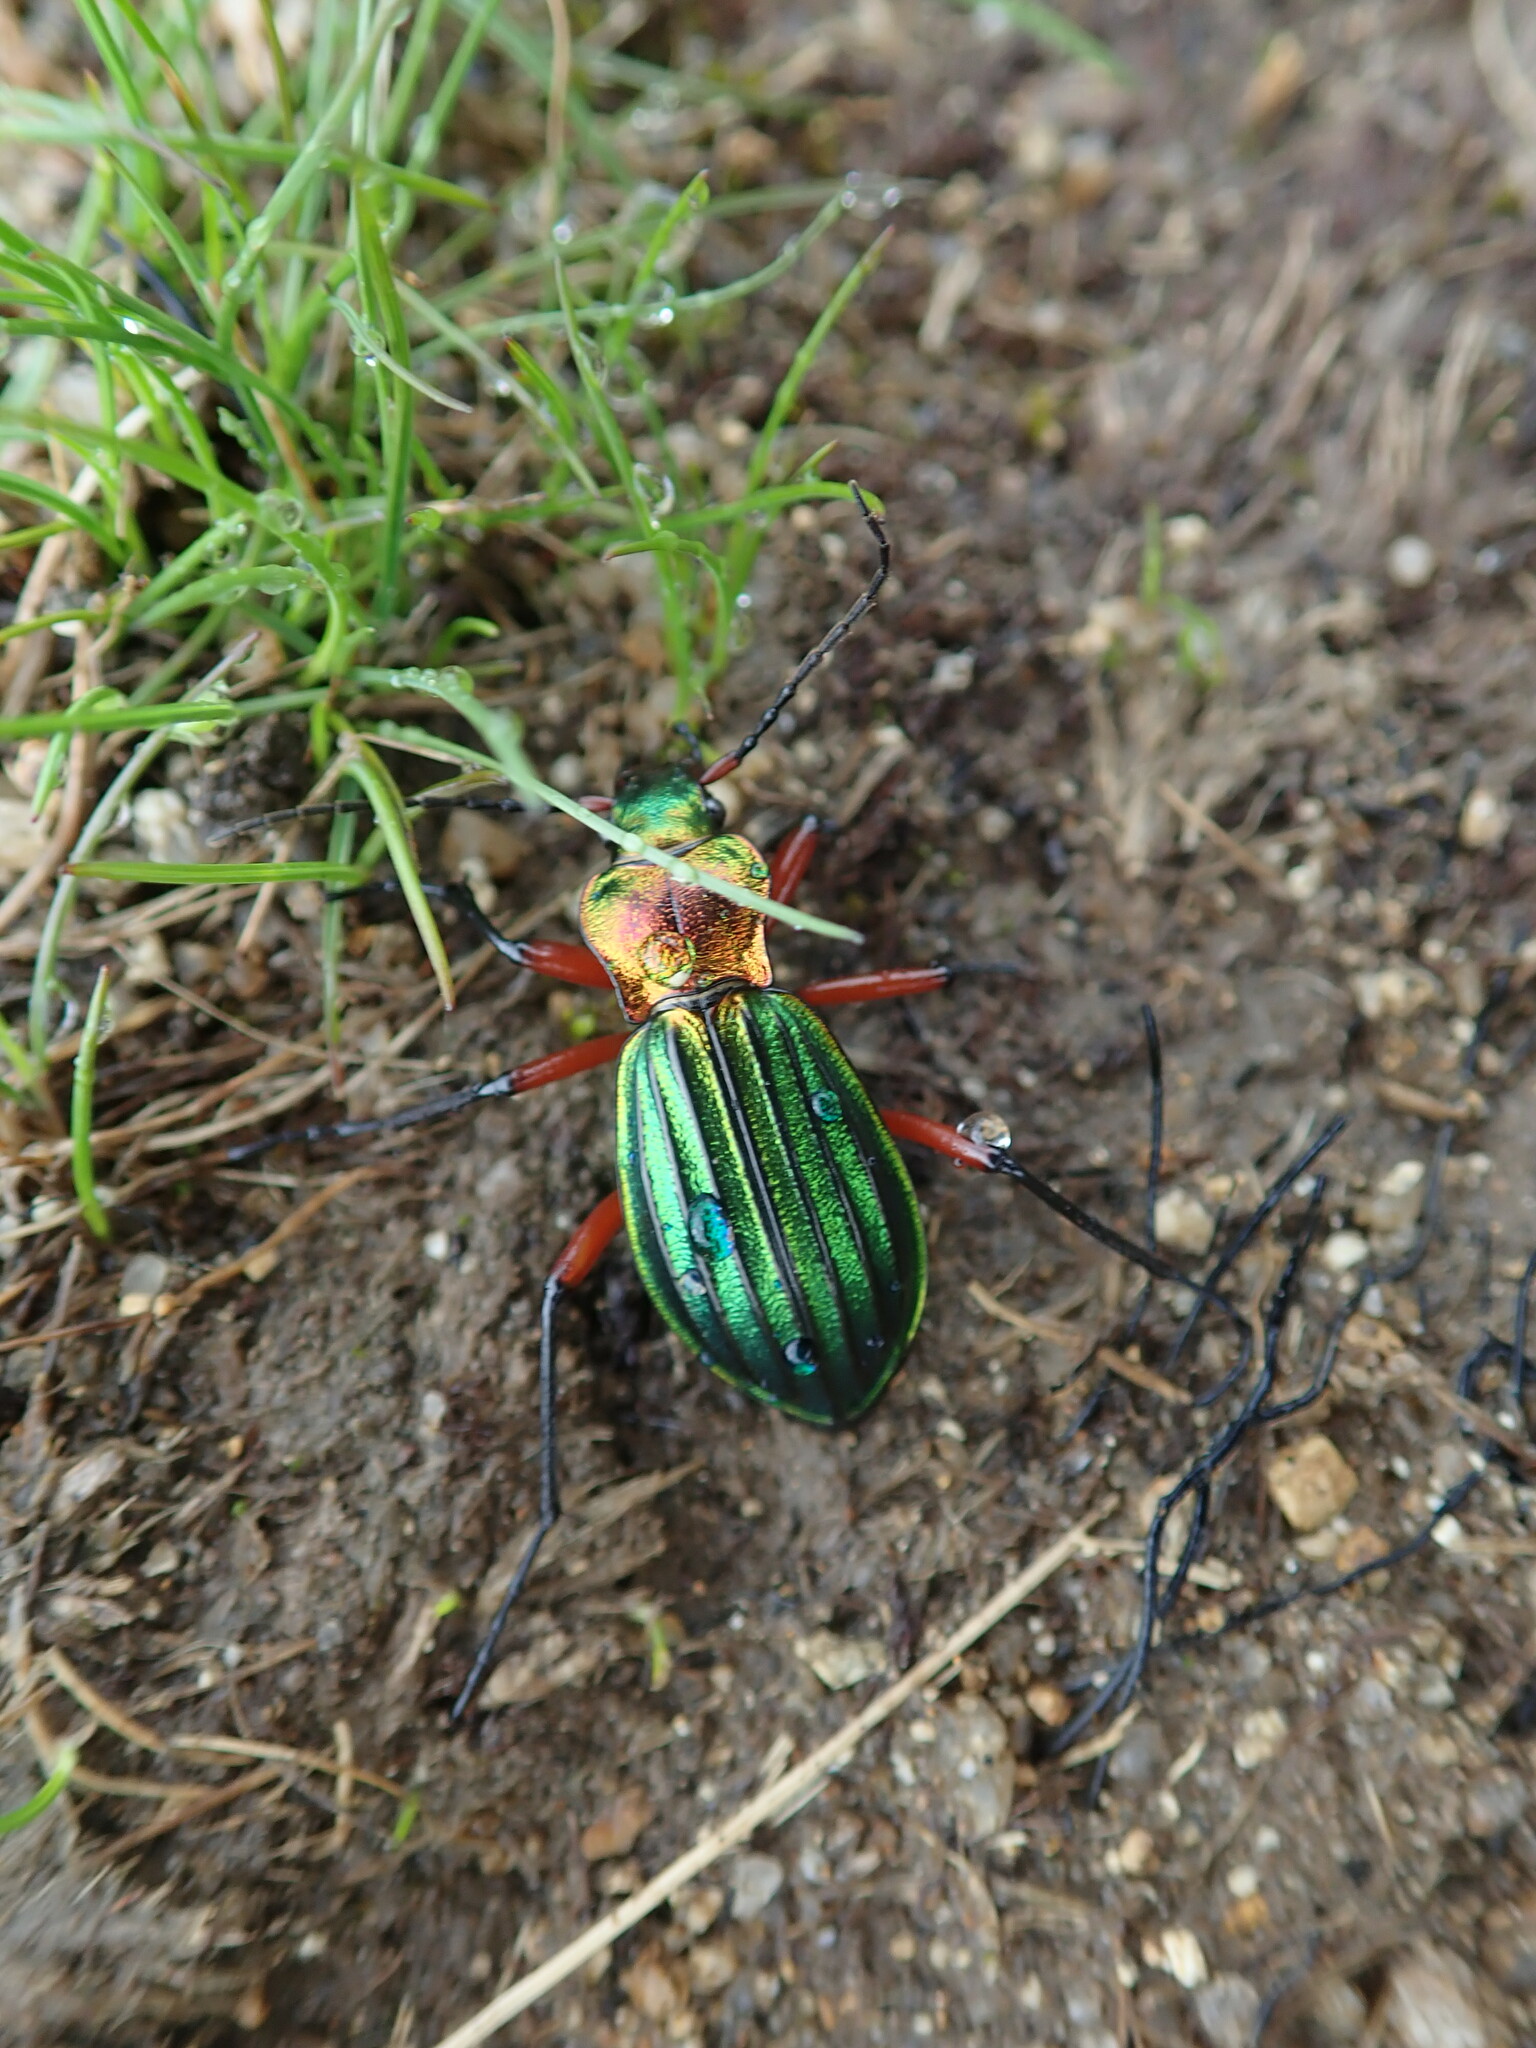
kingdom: Animalia
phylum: Arthropoda
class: Insecta
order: Coleoptera
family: Carabidae
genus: Carabus
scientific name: Carabus auronitens
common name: Carabus auronitens
